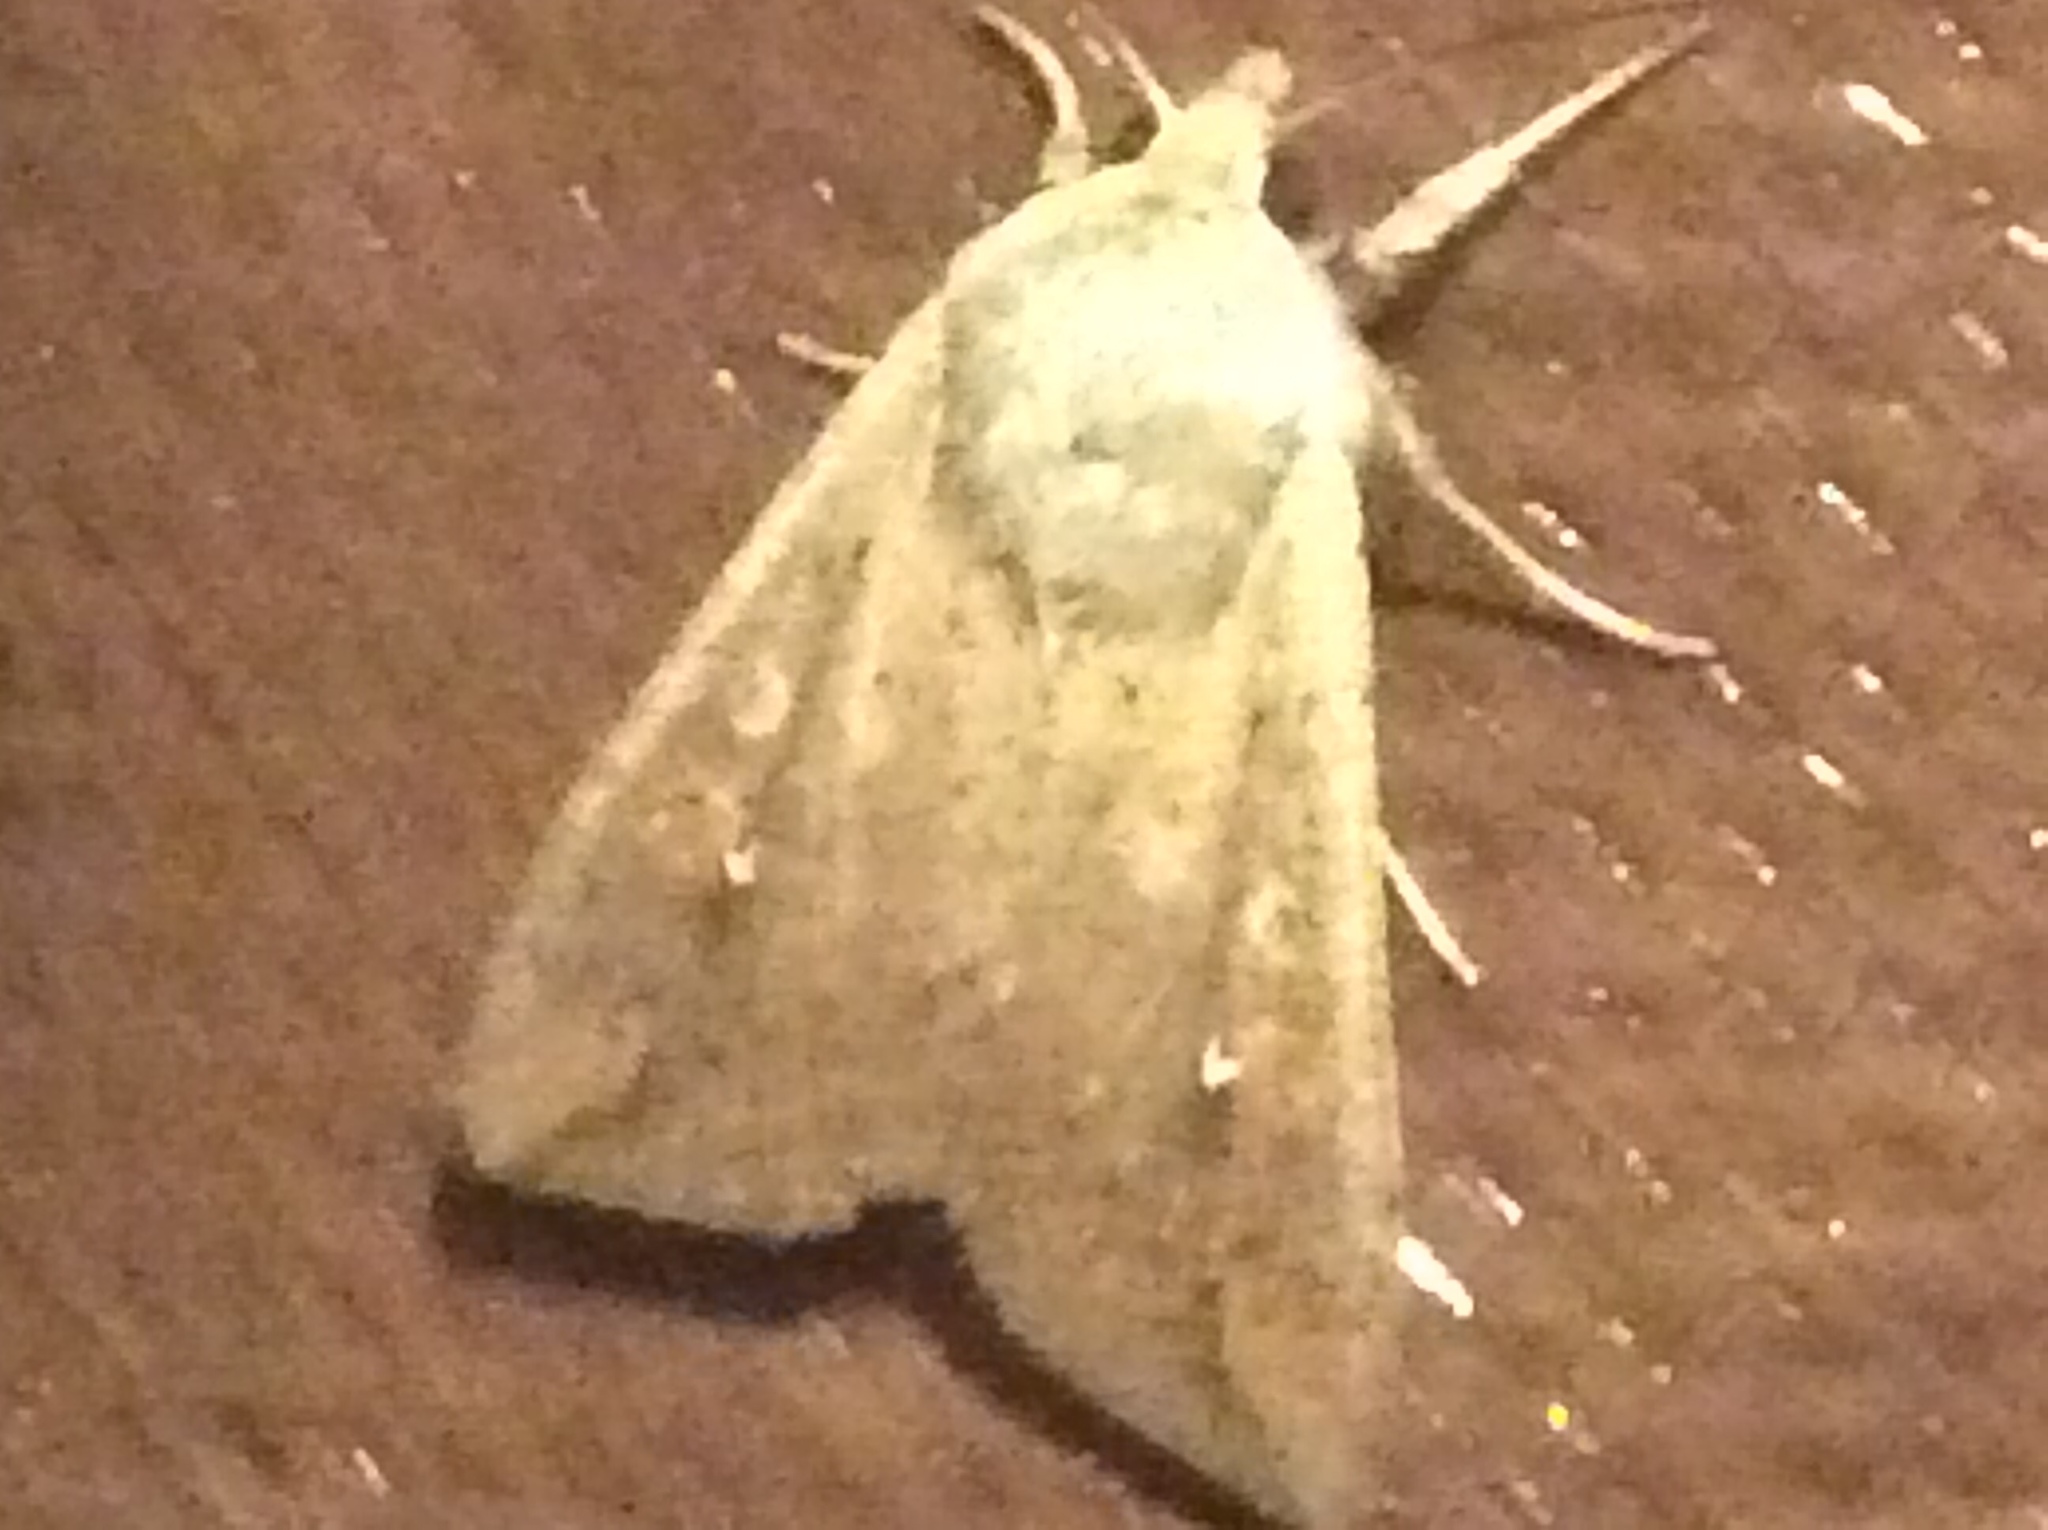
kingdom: Animalia
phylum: Arthropoda
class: Insecta
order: Lepidoptera
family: Noctuidae
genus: Mythimna
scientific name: Mythimna unipuncta
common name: White-speck
